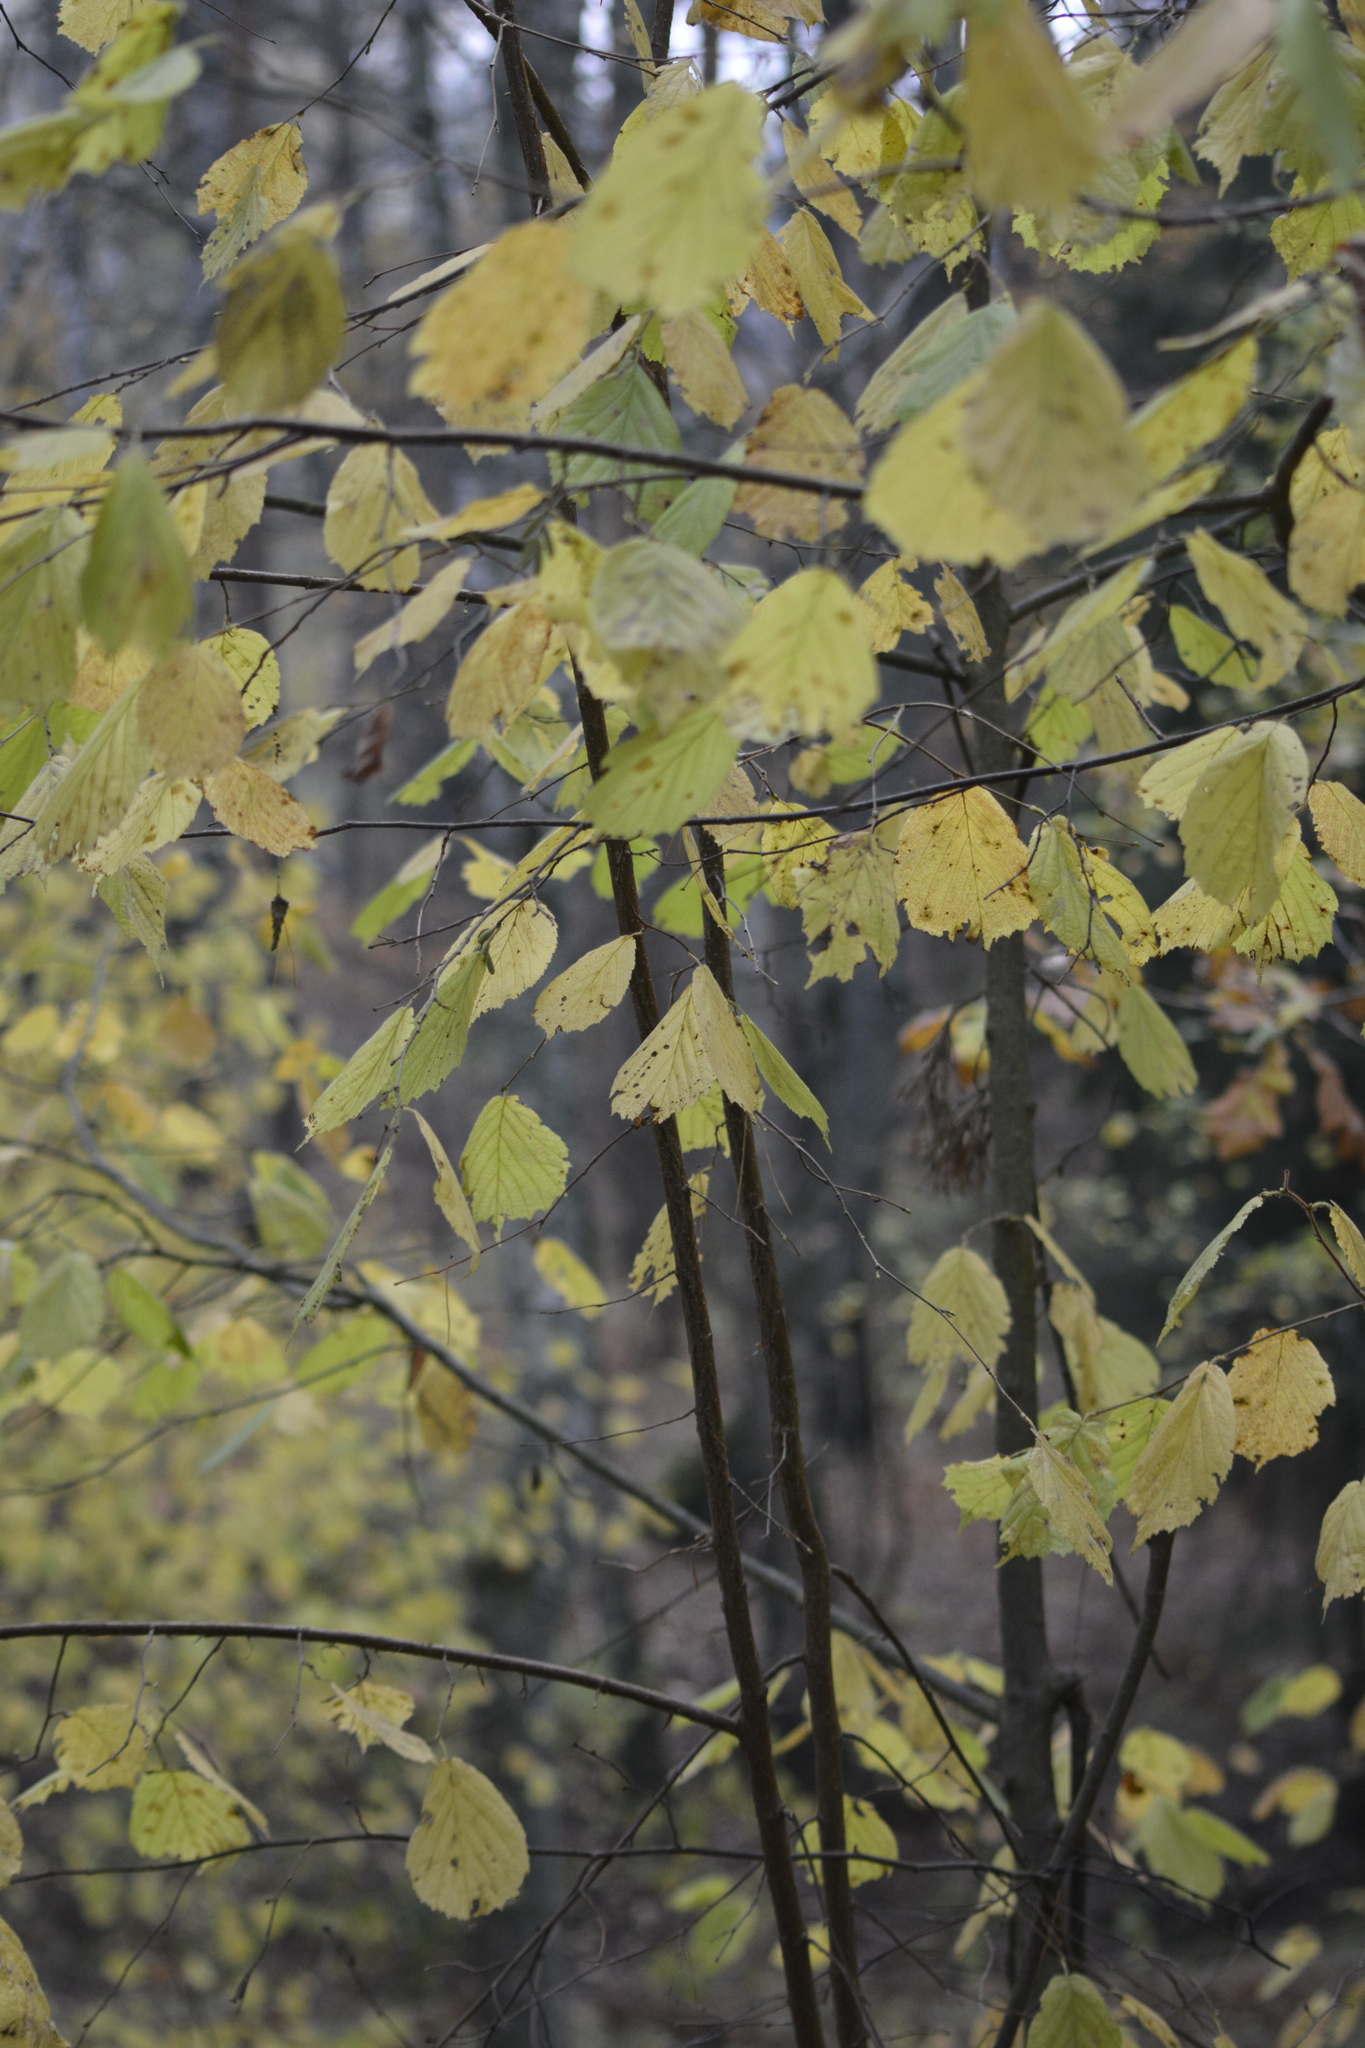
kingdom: Plantae
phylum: Tracheophyta
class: Magnoliopsida
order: Fagales
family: Betulaceae
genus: Corylus
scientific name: Corylus avellana
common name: European hazel
